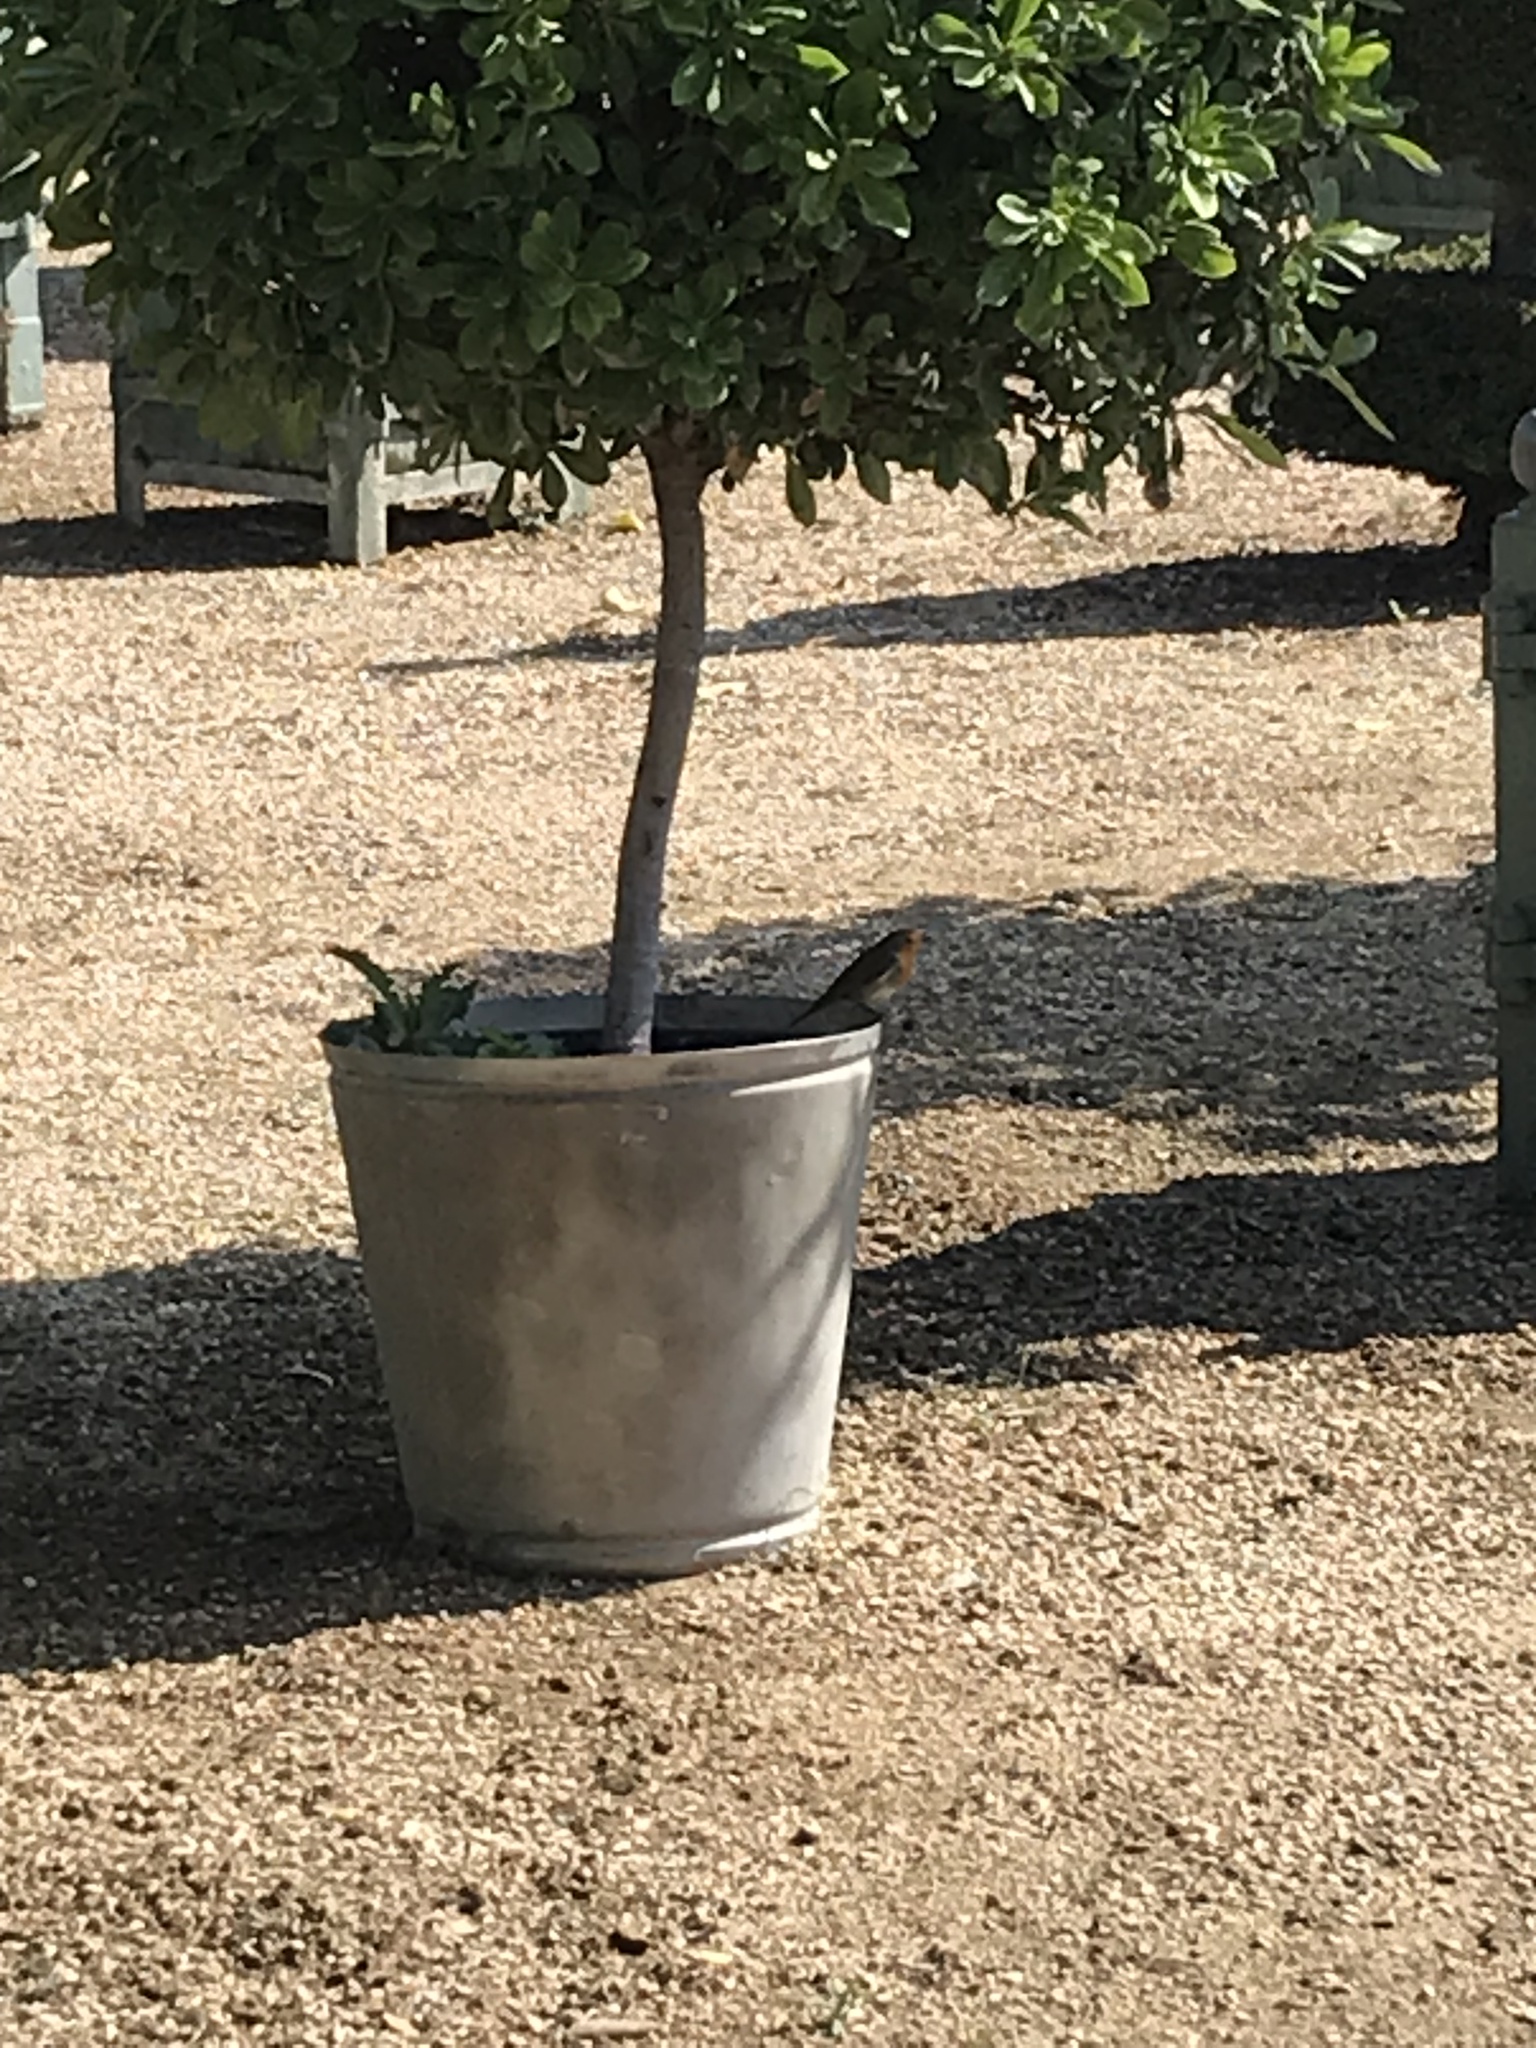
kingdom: Animalia
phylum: Chordata
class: Aves
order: Passeriformes
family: Muscicapidae
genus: Erithacus
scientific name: Erithacus rubecula
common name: European robin
